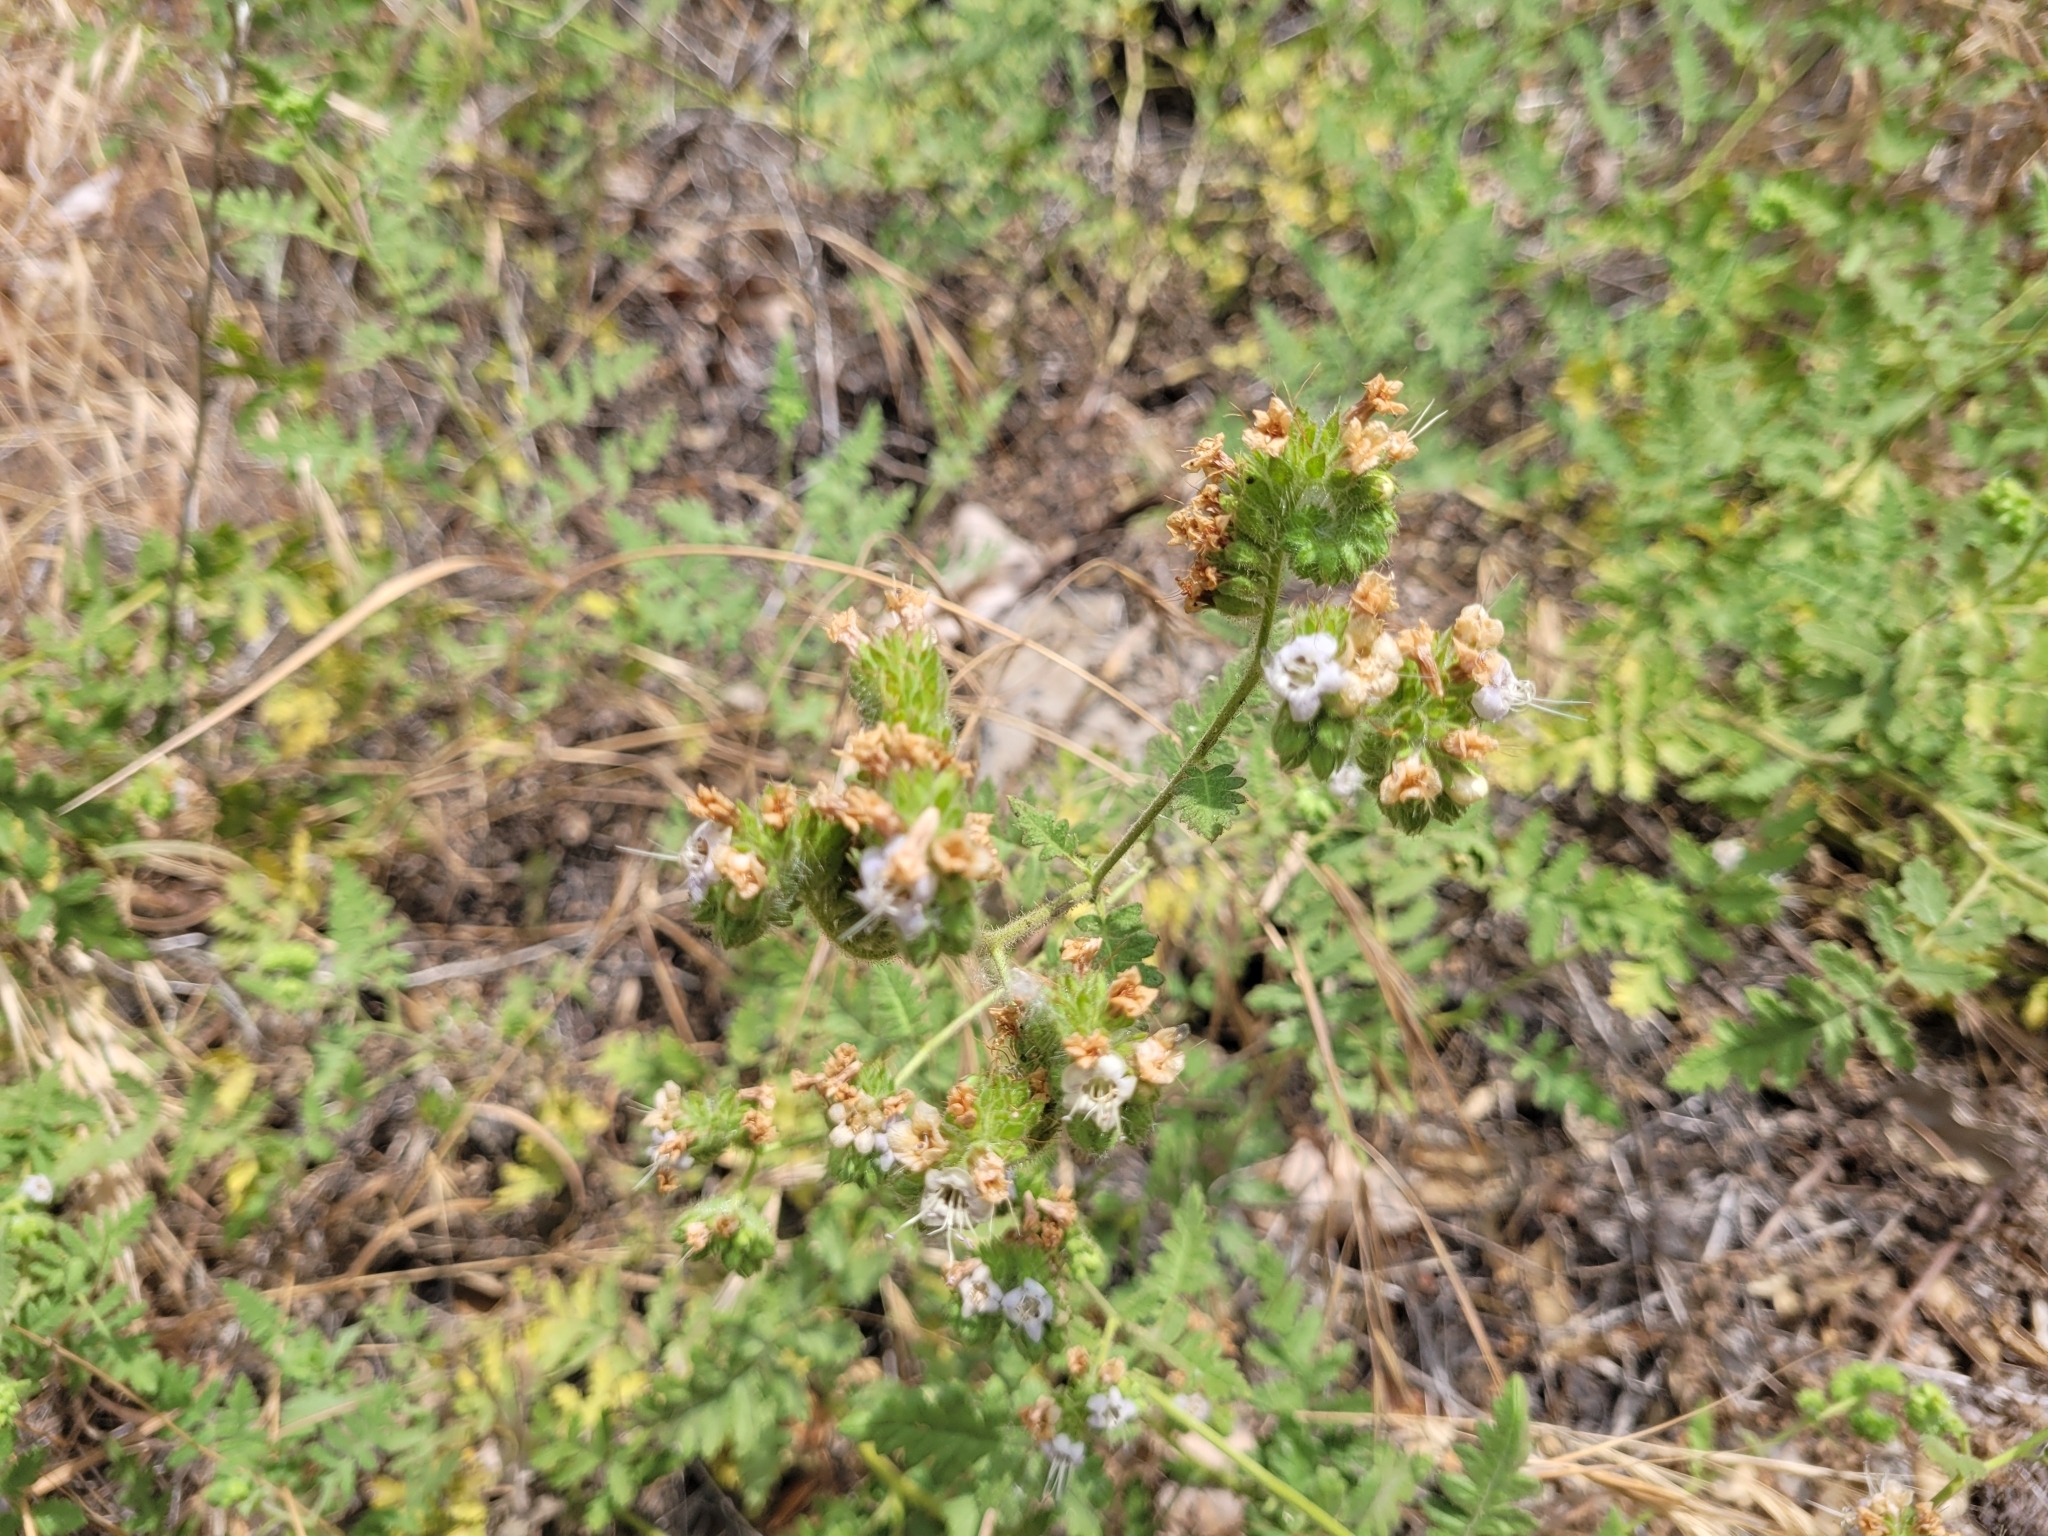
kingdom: Plantae
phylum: Tracheophyta
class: Magnoliopsida
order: Boraginales
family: Hydrophyllaceae
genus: Phacelia
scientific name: Phacelia ramosissima
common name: Branching phacelia
